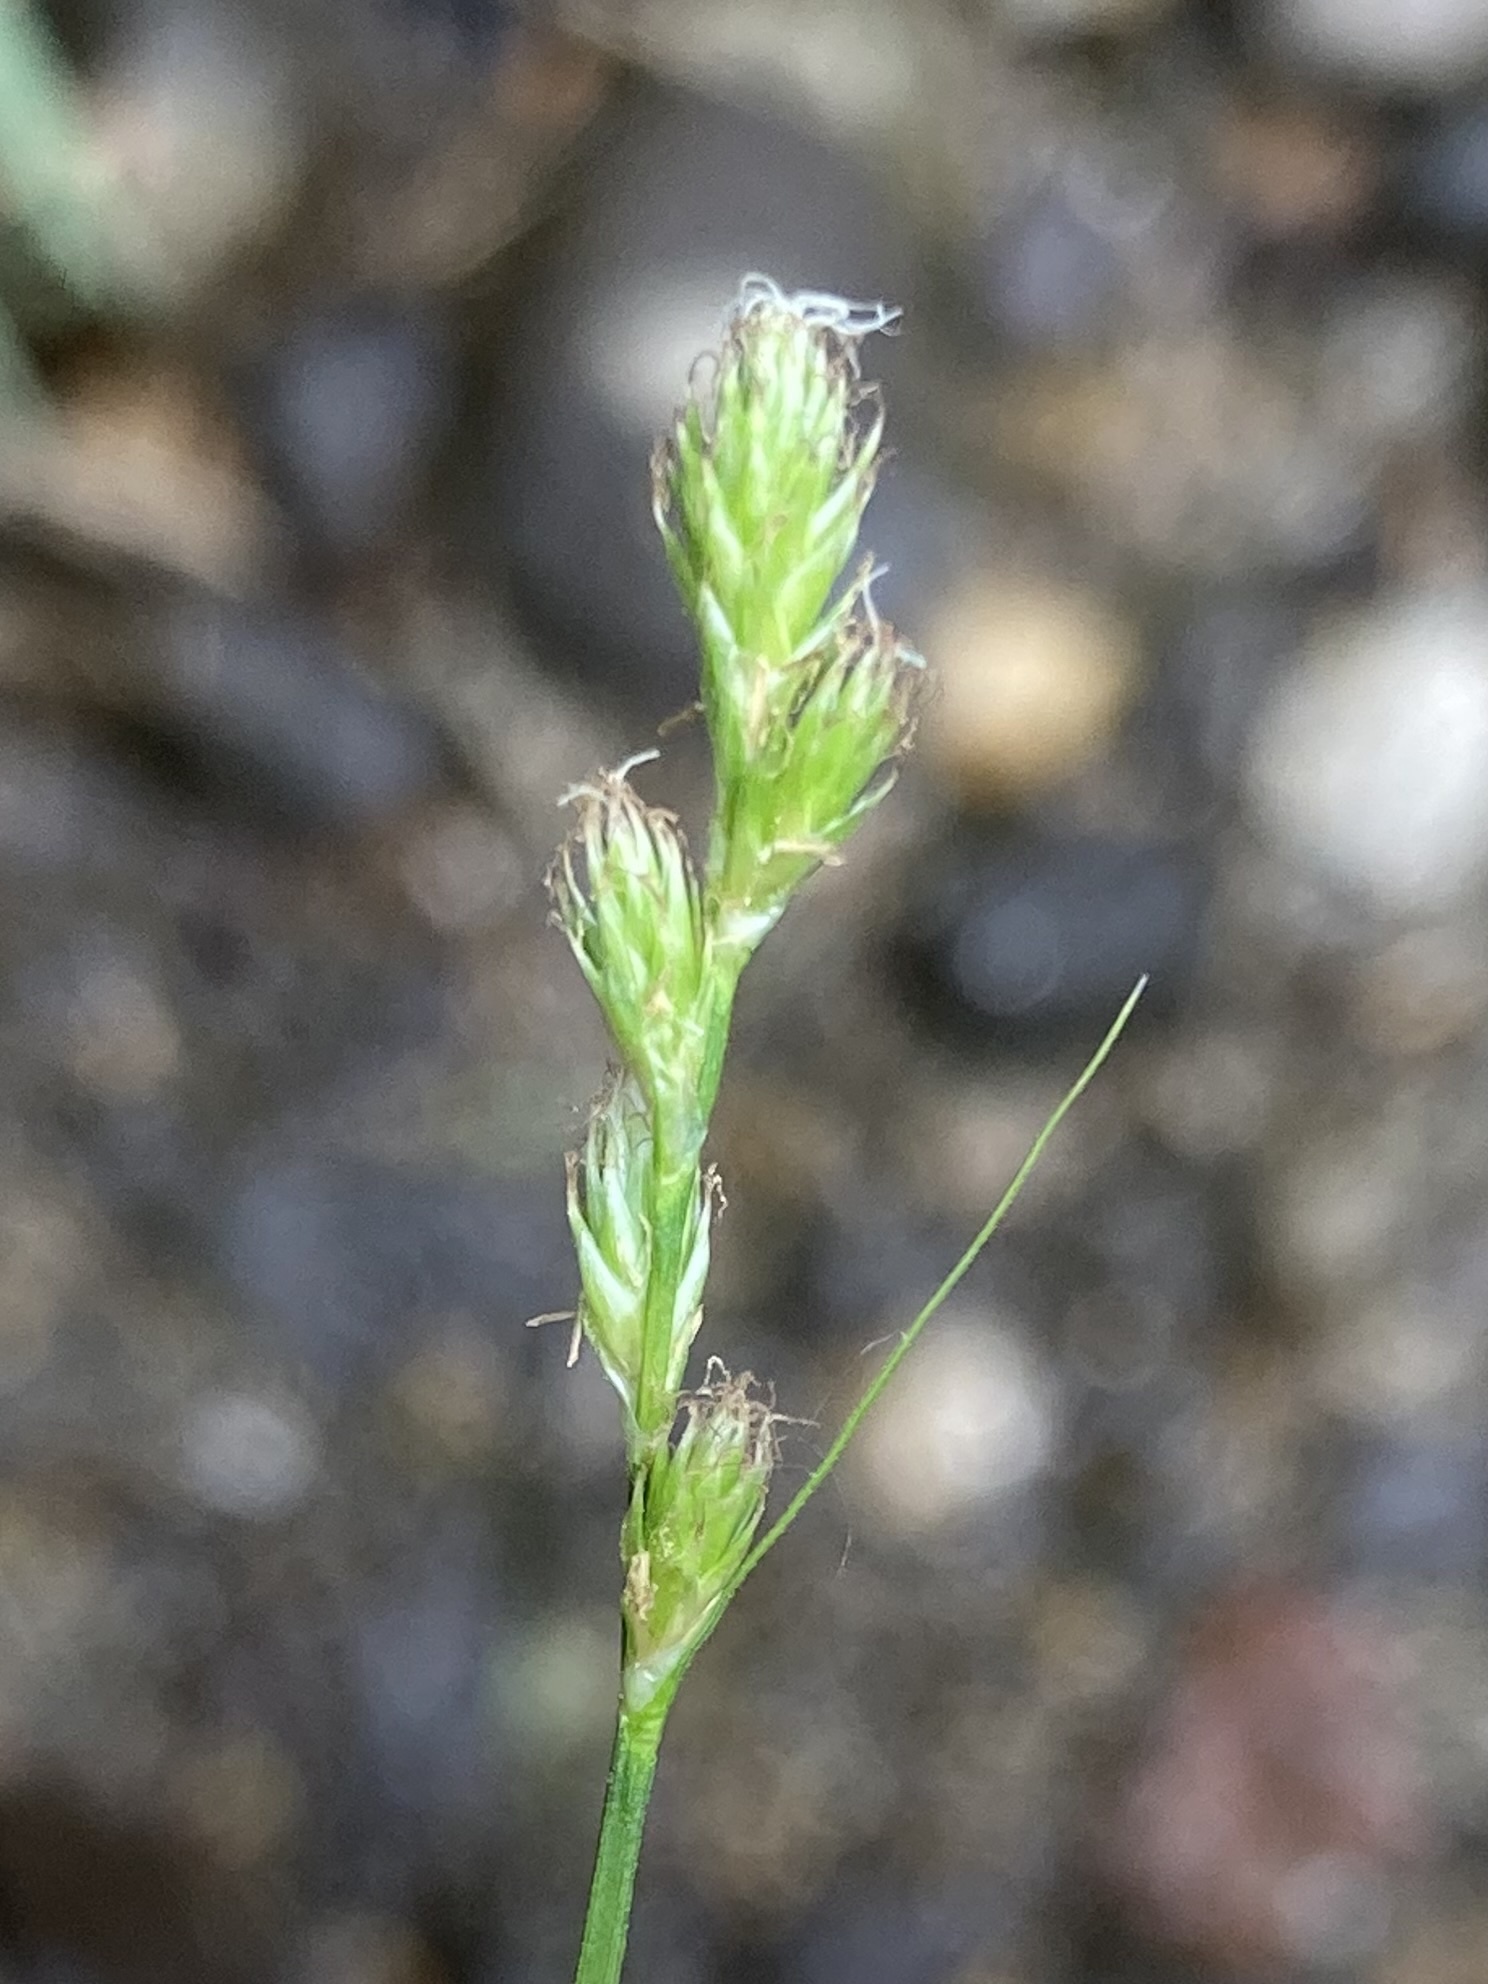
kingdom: Plantae
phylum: Tracheophyta
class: Liliopsida
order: Poales
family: Cyperaceae
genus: Carex
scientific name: Carex scoparia
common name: Broom sedge
